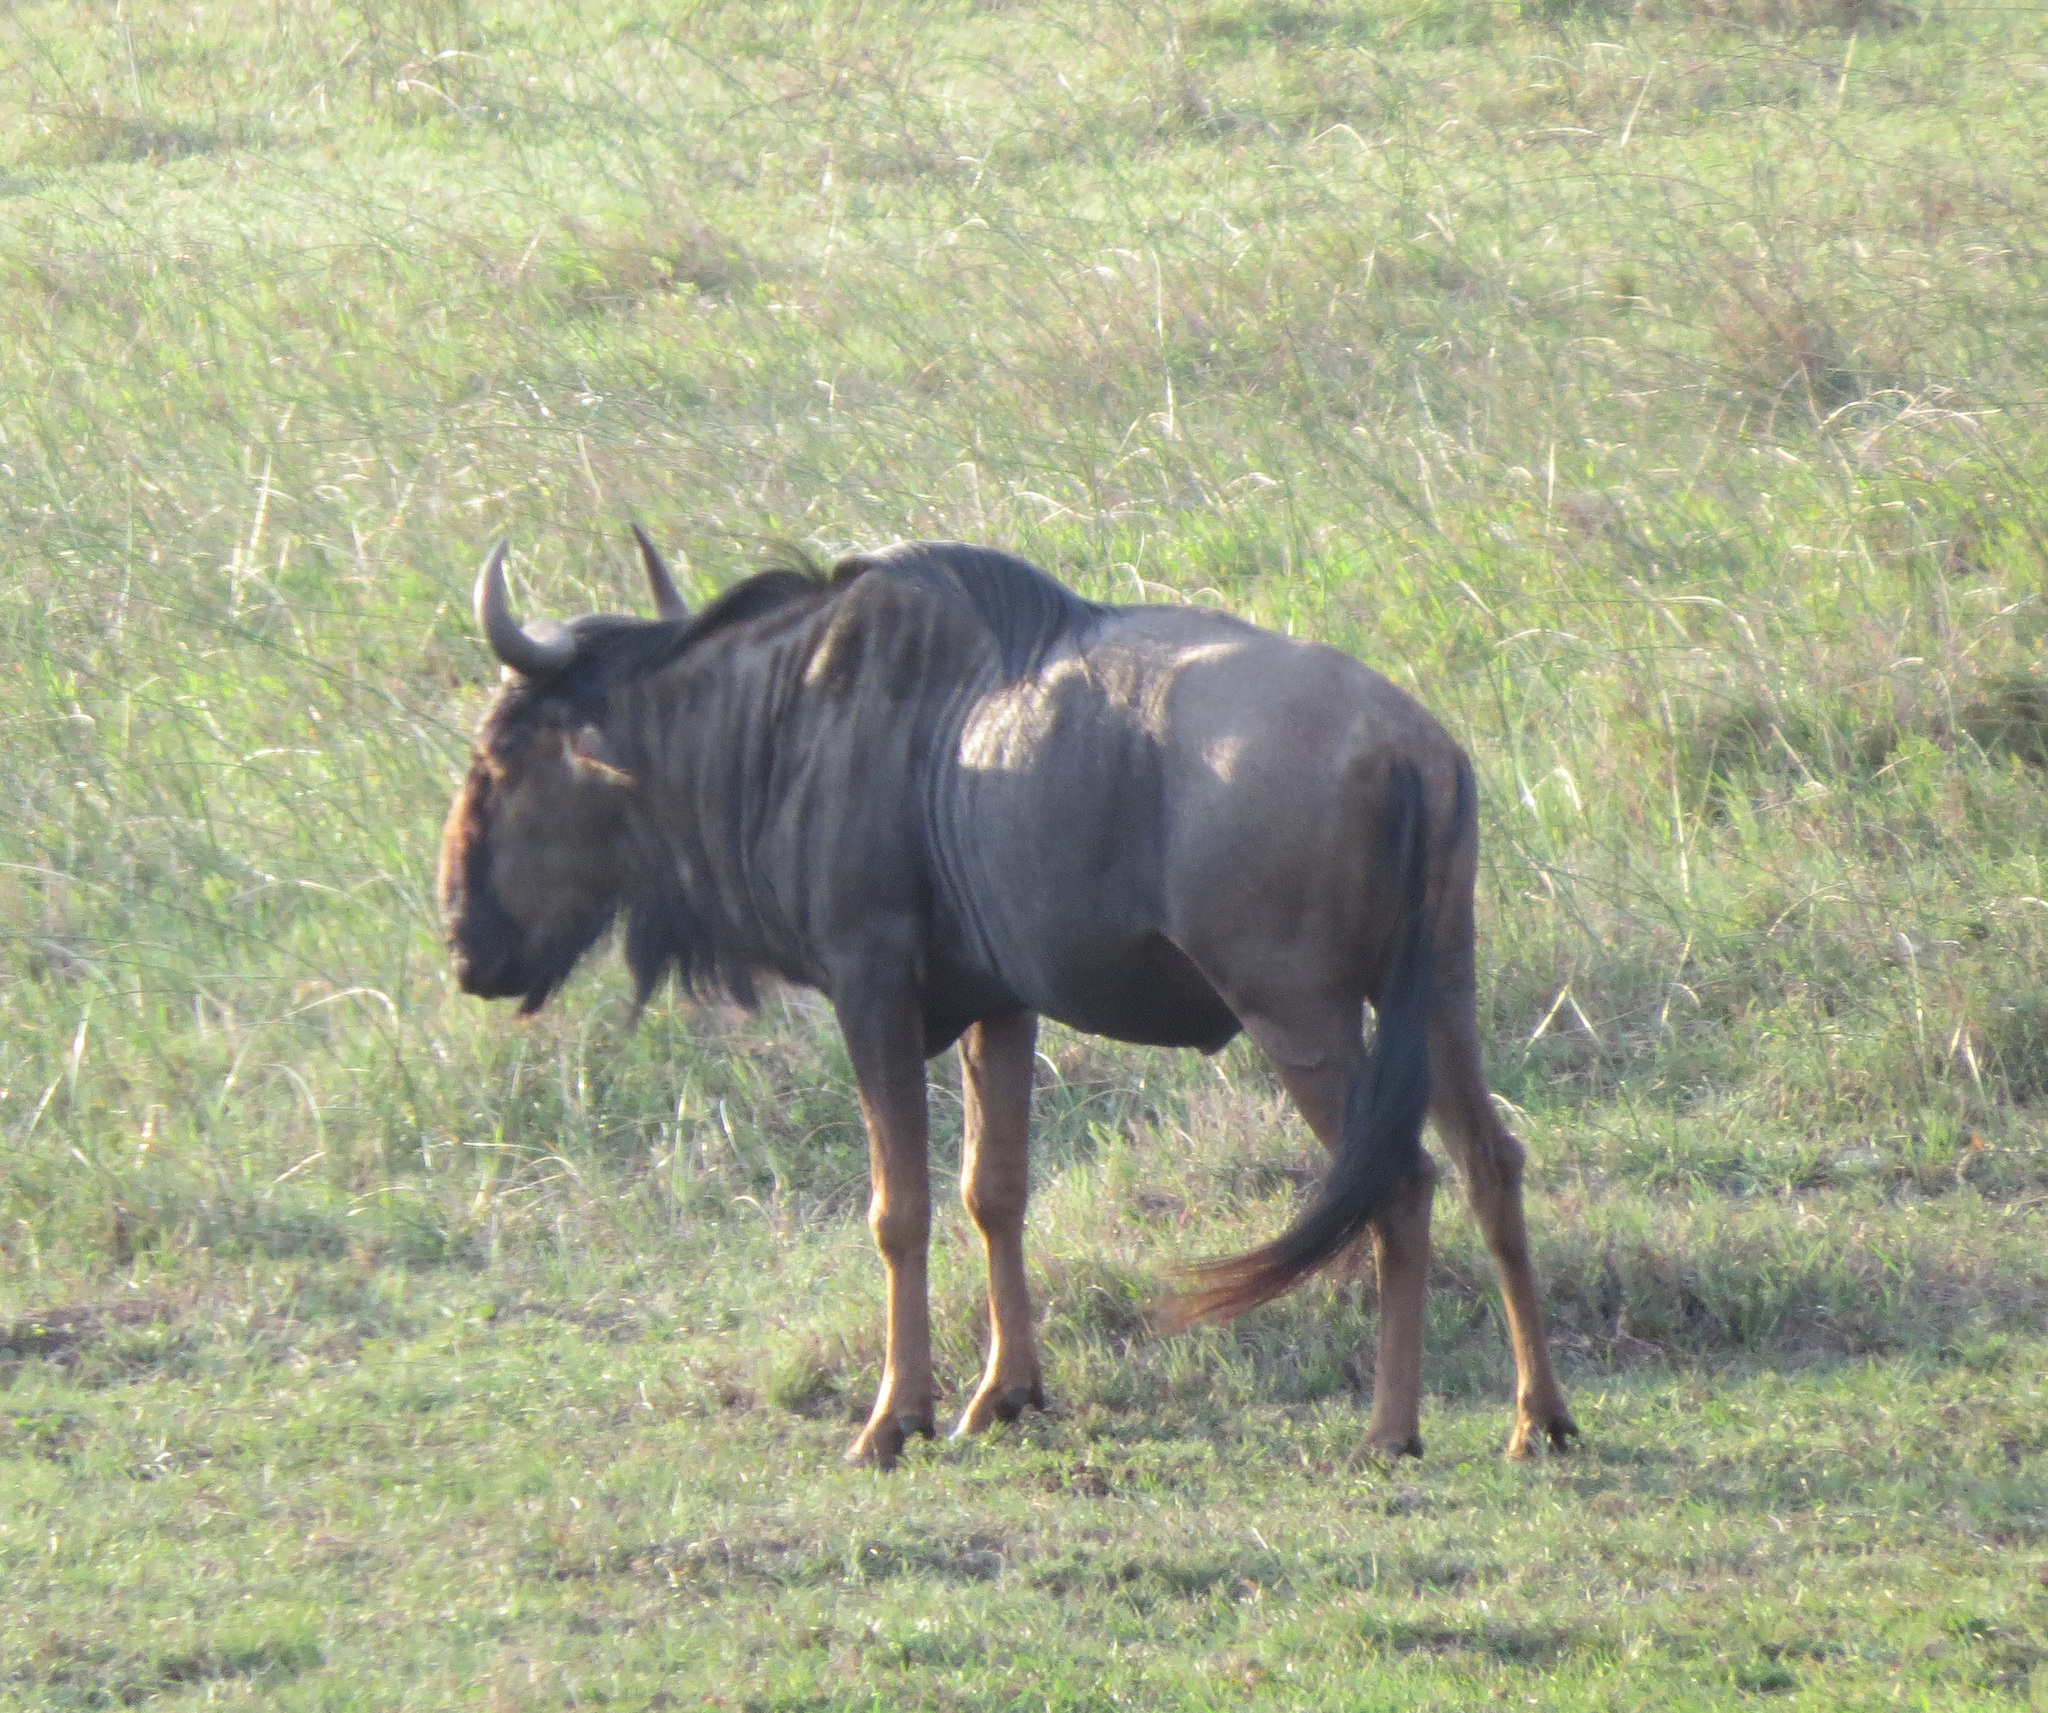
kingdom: Animalia
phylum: Chordata
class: Mammalia
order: Artiodactyla
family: Bovidae
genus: Connochaetes
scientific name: Connochaetes taurinus
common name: Blue wildebeest
